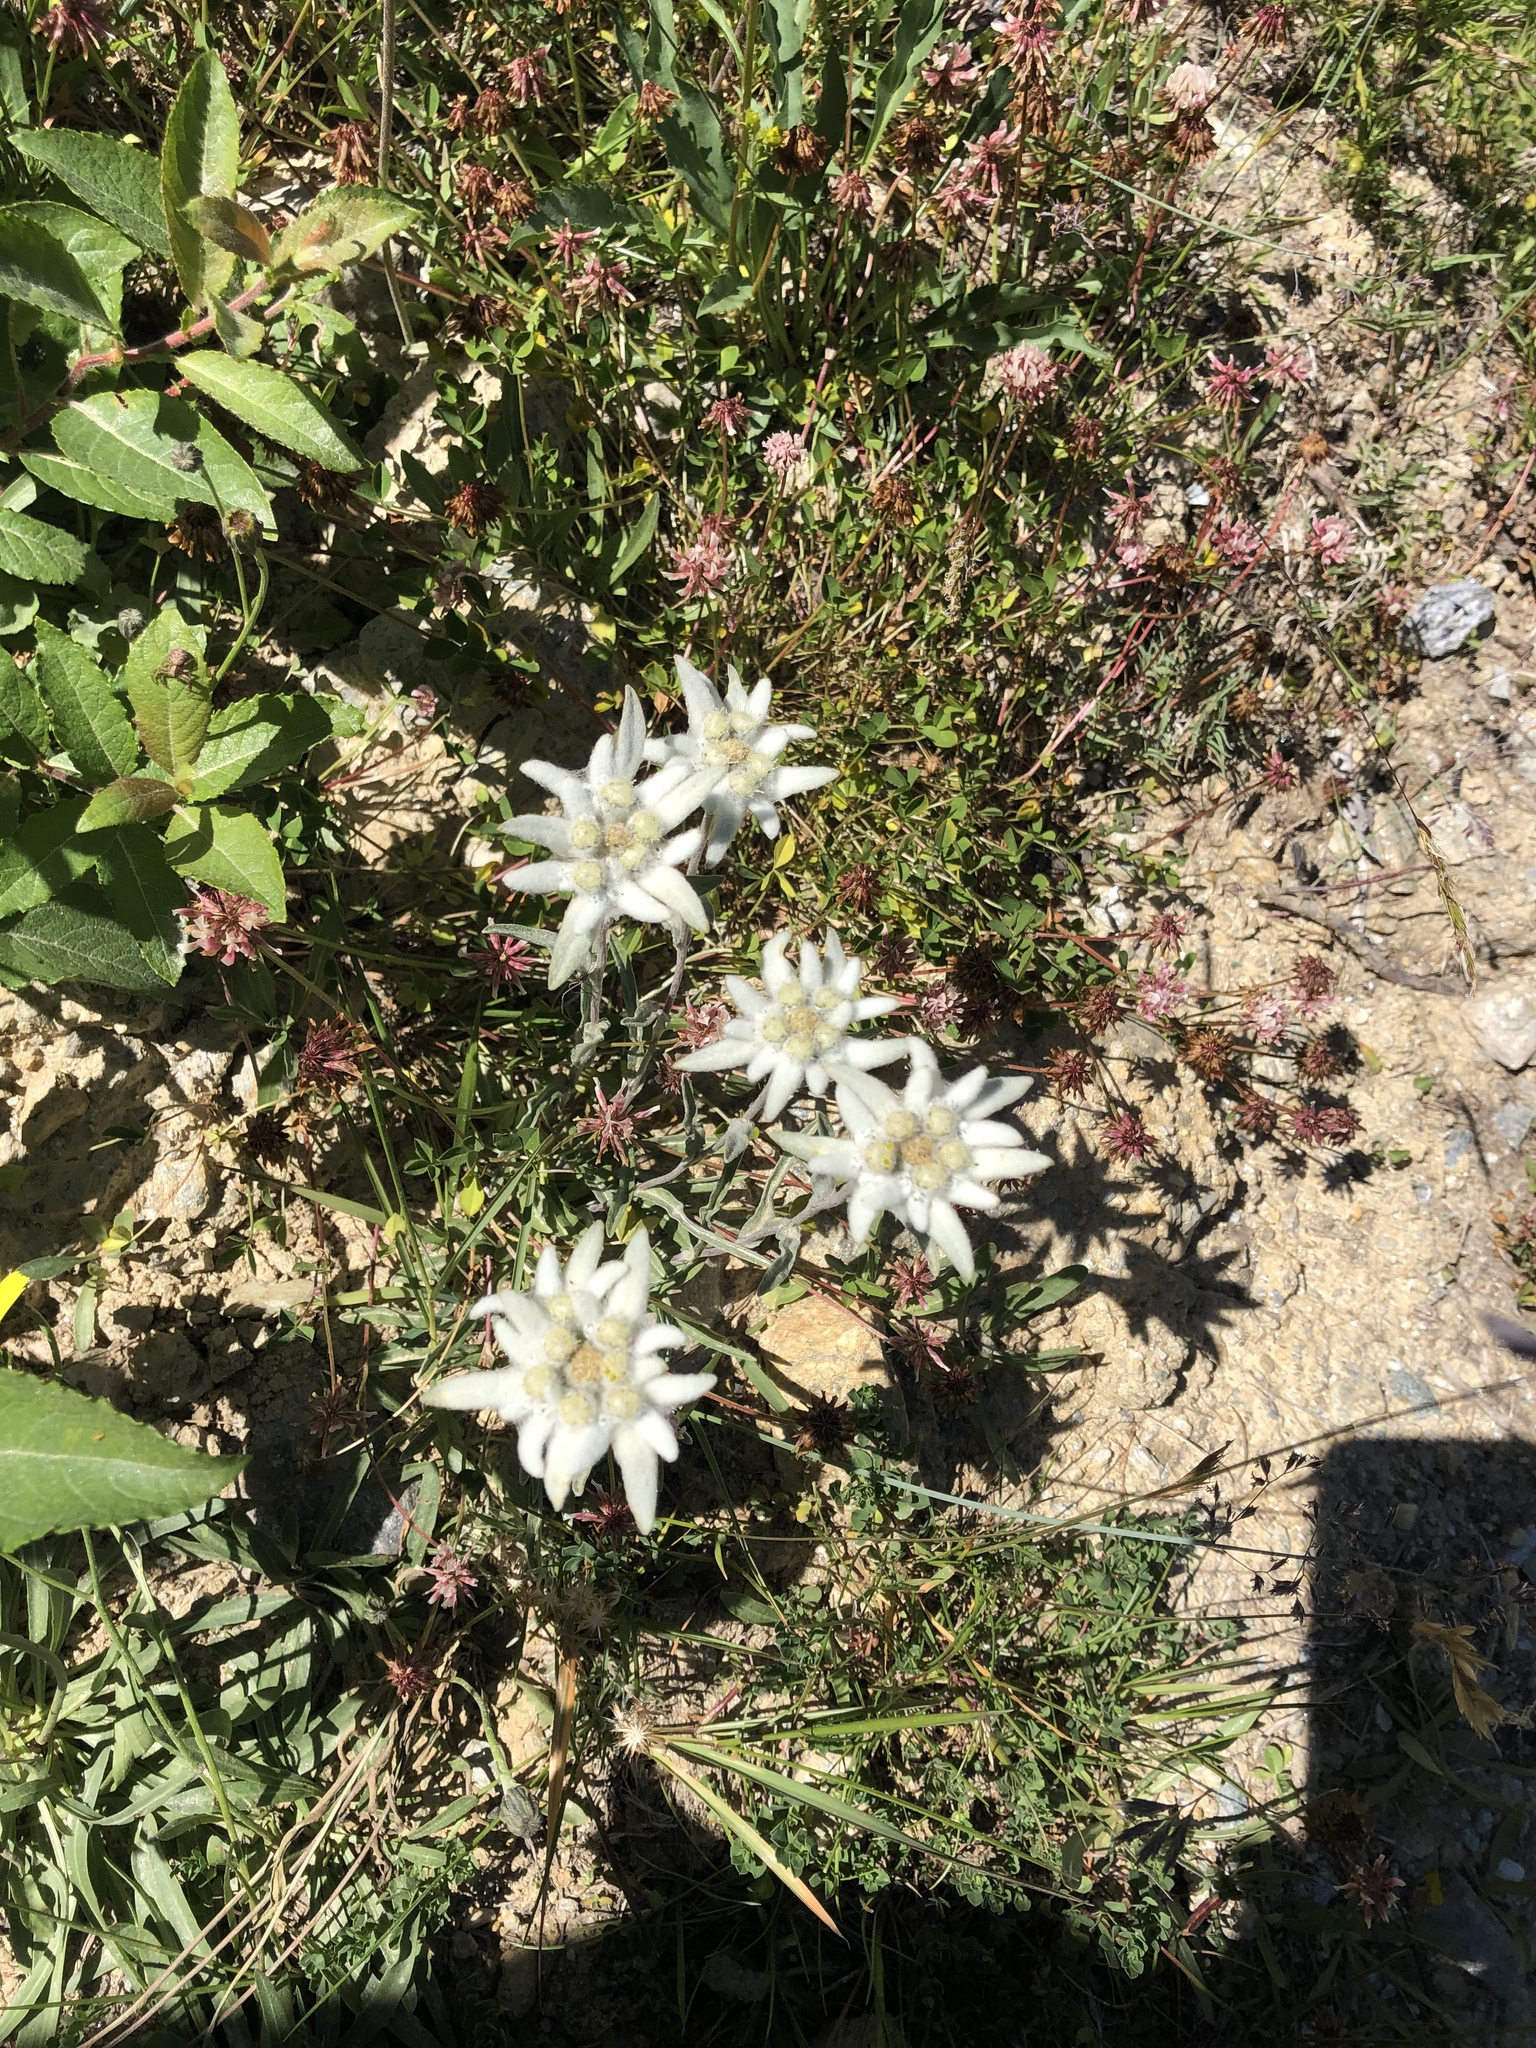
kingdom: Plantae
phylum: Tracheophyta
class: Magnoliopsida
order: Asterales
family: Asteraceae
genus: Leontopodium
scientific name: Leontopodium nivale
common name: Edelweiss
